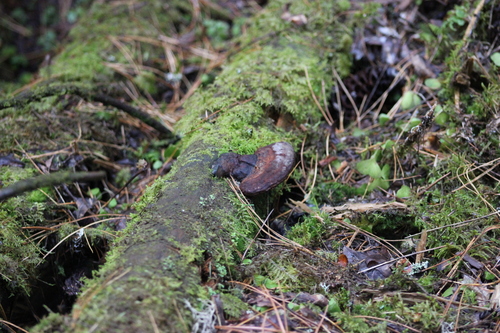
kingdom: Fungi
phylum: Basidiomycota
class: Agaricomycetes
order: Polyporales
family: Fomitopsidaceae
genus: Fomitopsis
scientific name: Fomitopsis pinicola
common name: Red-belted bracket
